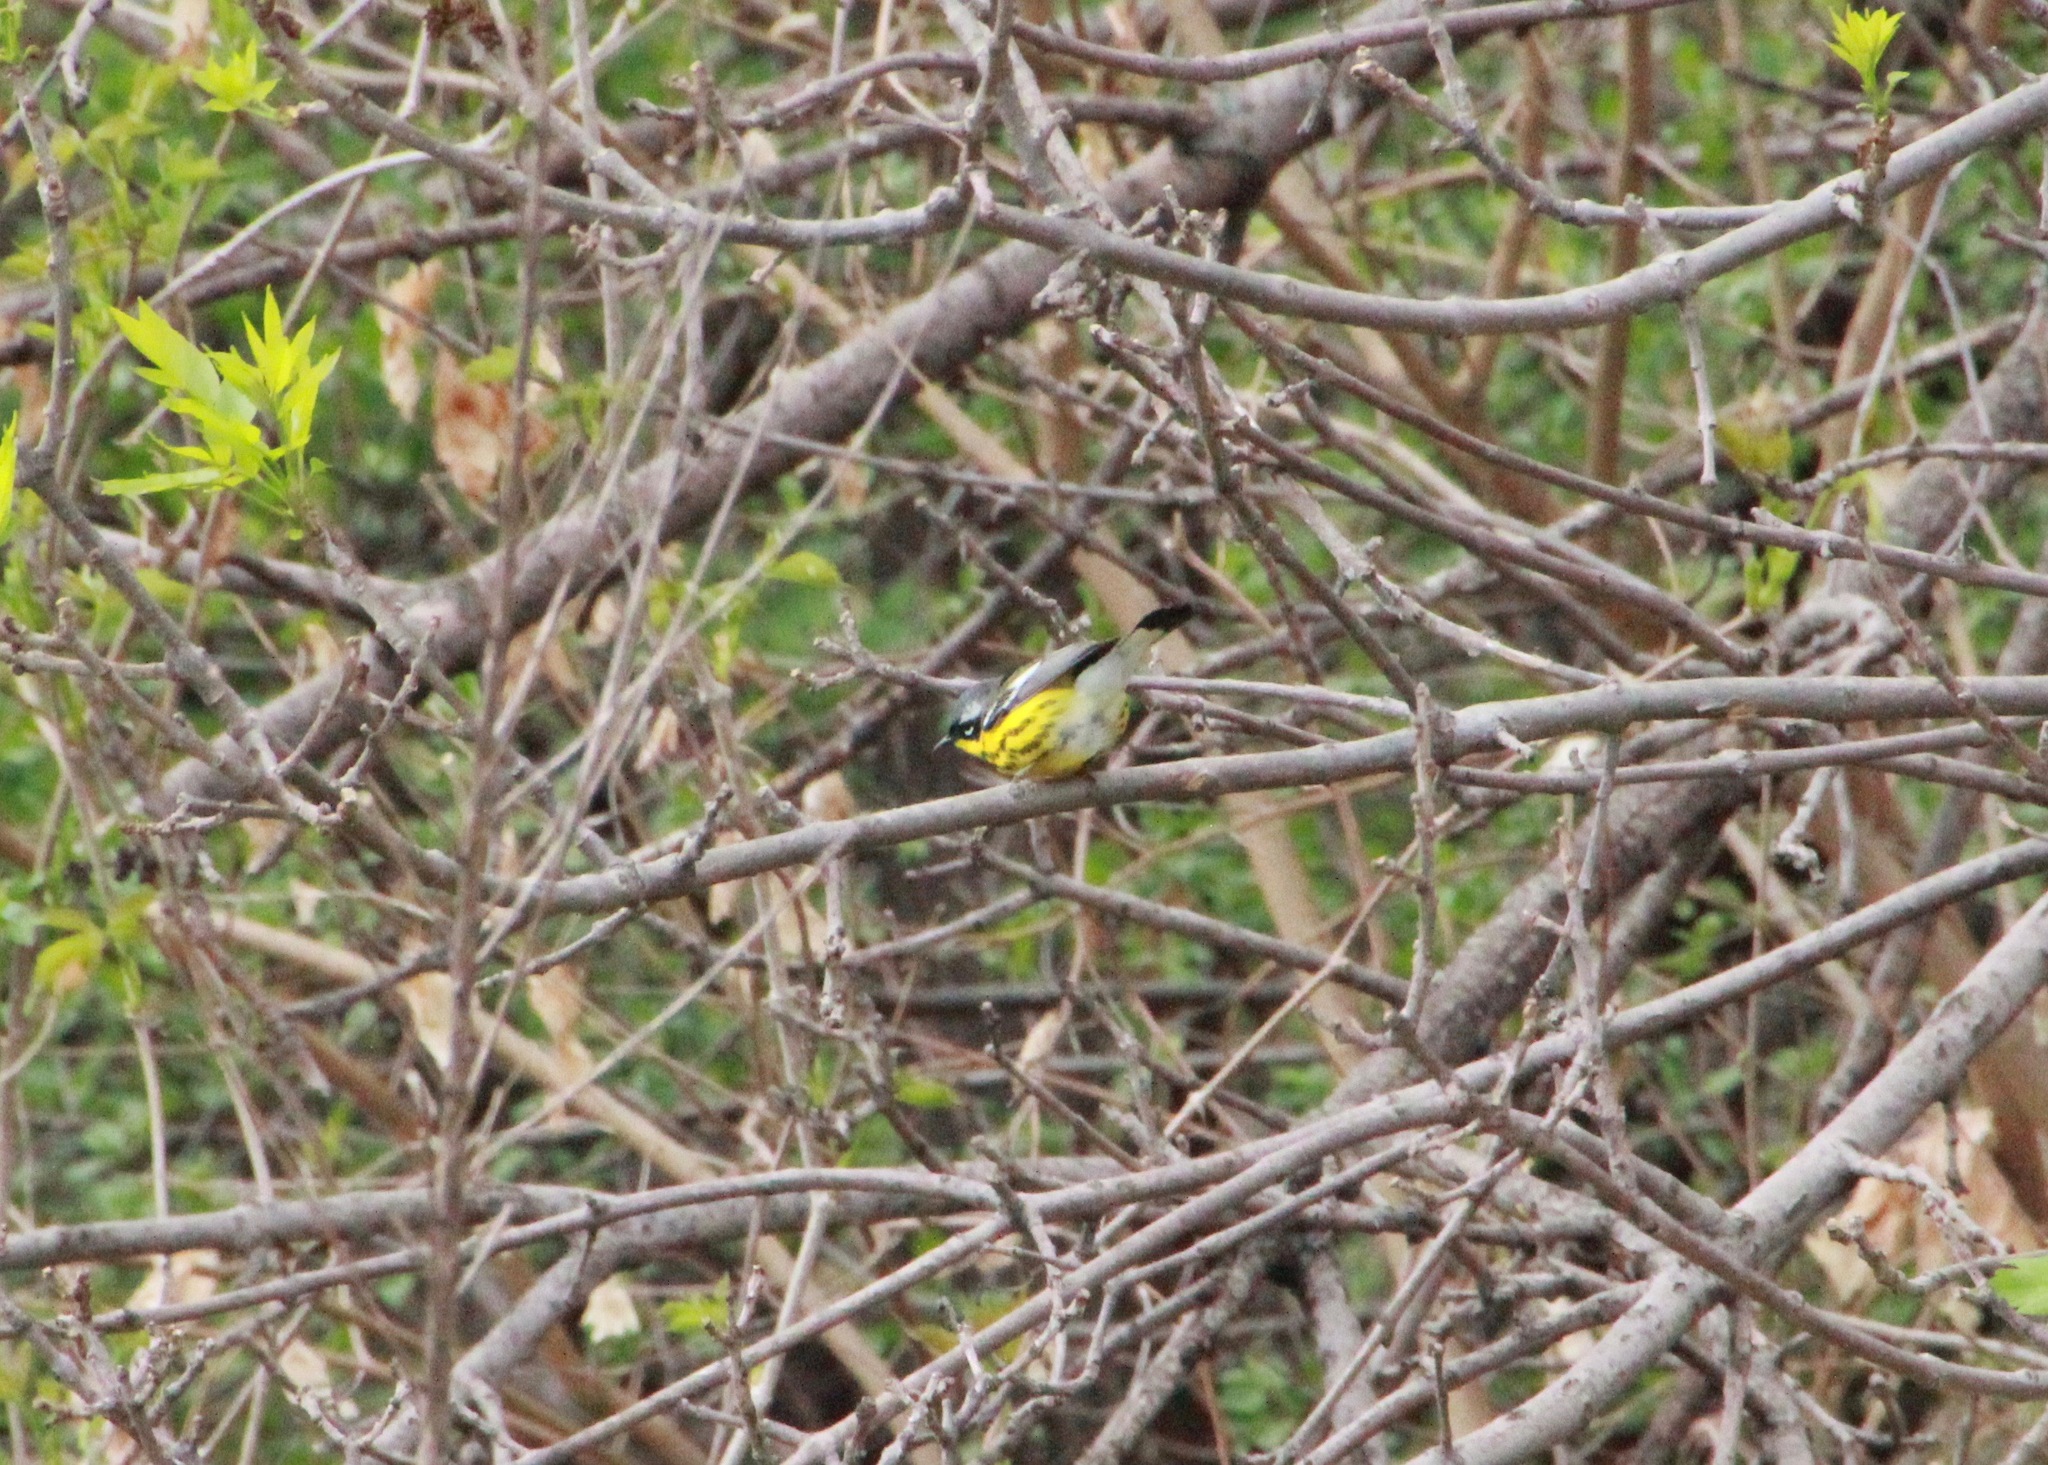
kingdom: Animalia
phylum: Chordata
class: Aves
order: Passeriformes
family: Parulidae
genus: Setophaga
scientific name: Setophaga magnolia
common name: Magnolia warbler
